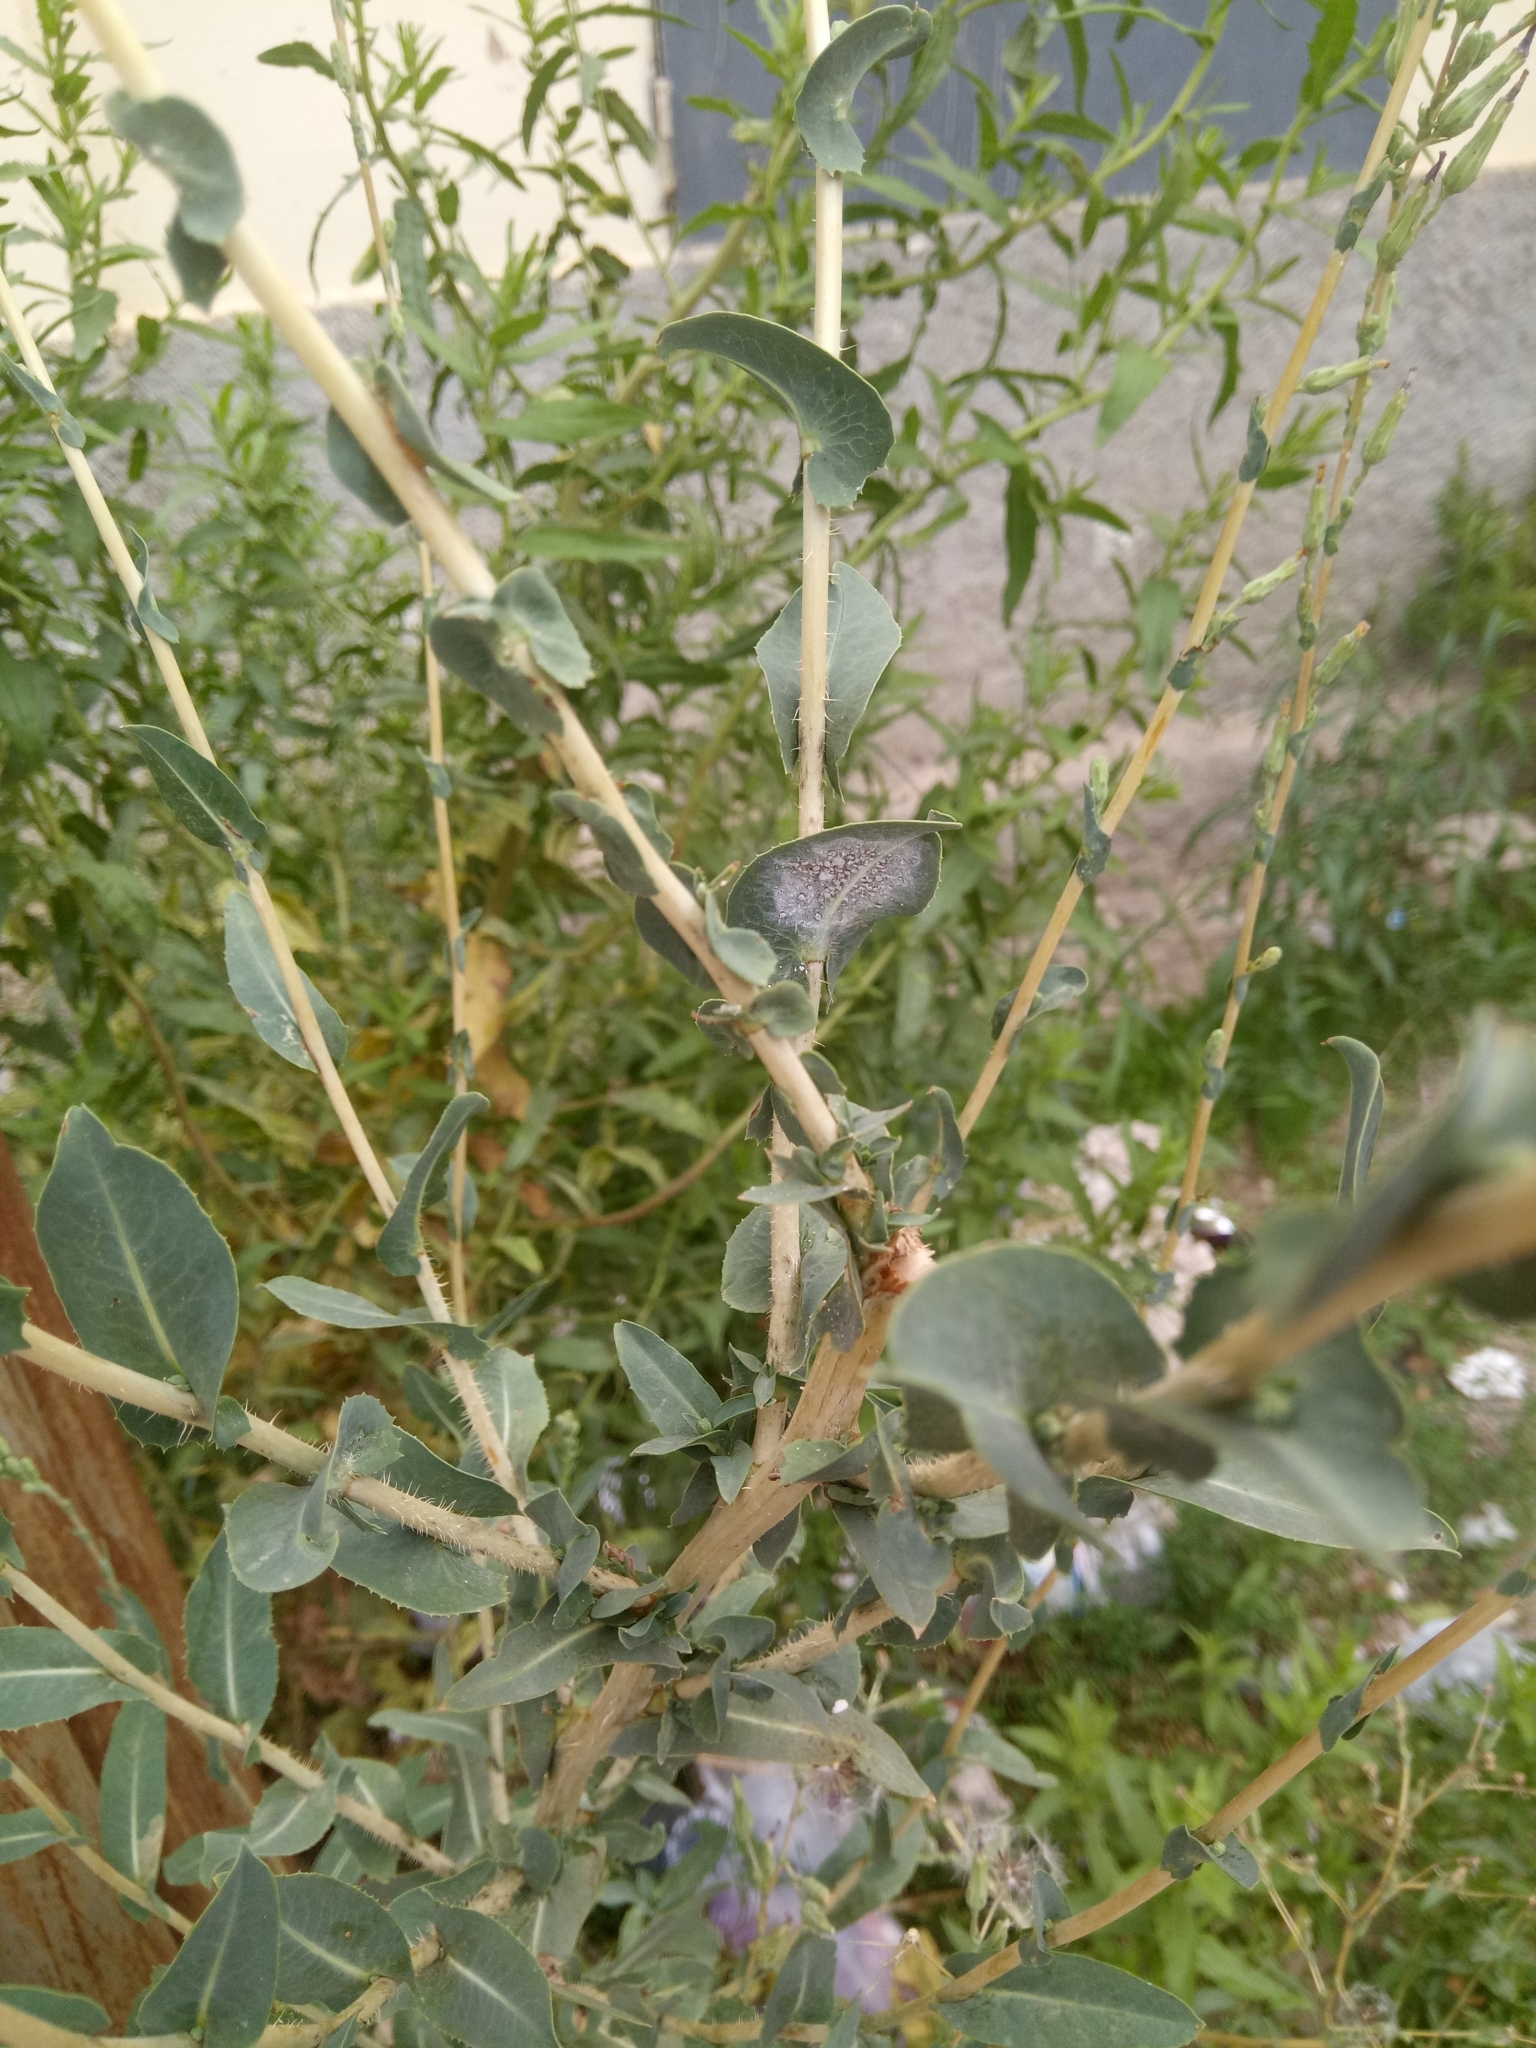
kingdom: Plantae
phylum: Tracheophyta
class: Magnoliopsida
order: Asterales
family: Asteraceae
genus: Lactuca
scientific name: Lactuca saligna
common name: Wild lettuce
